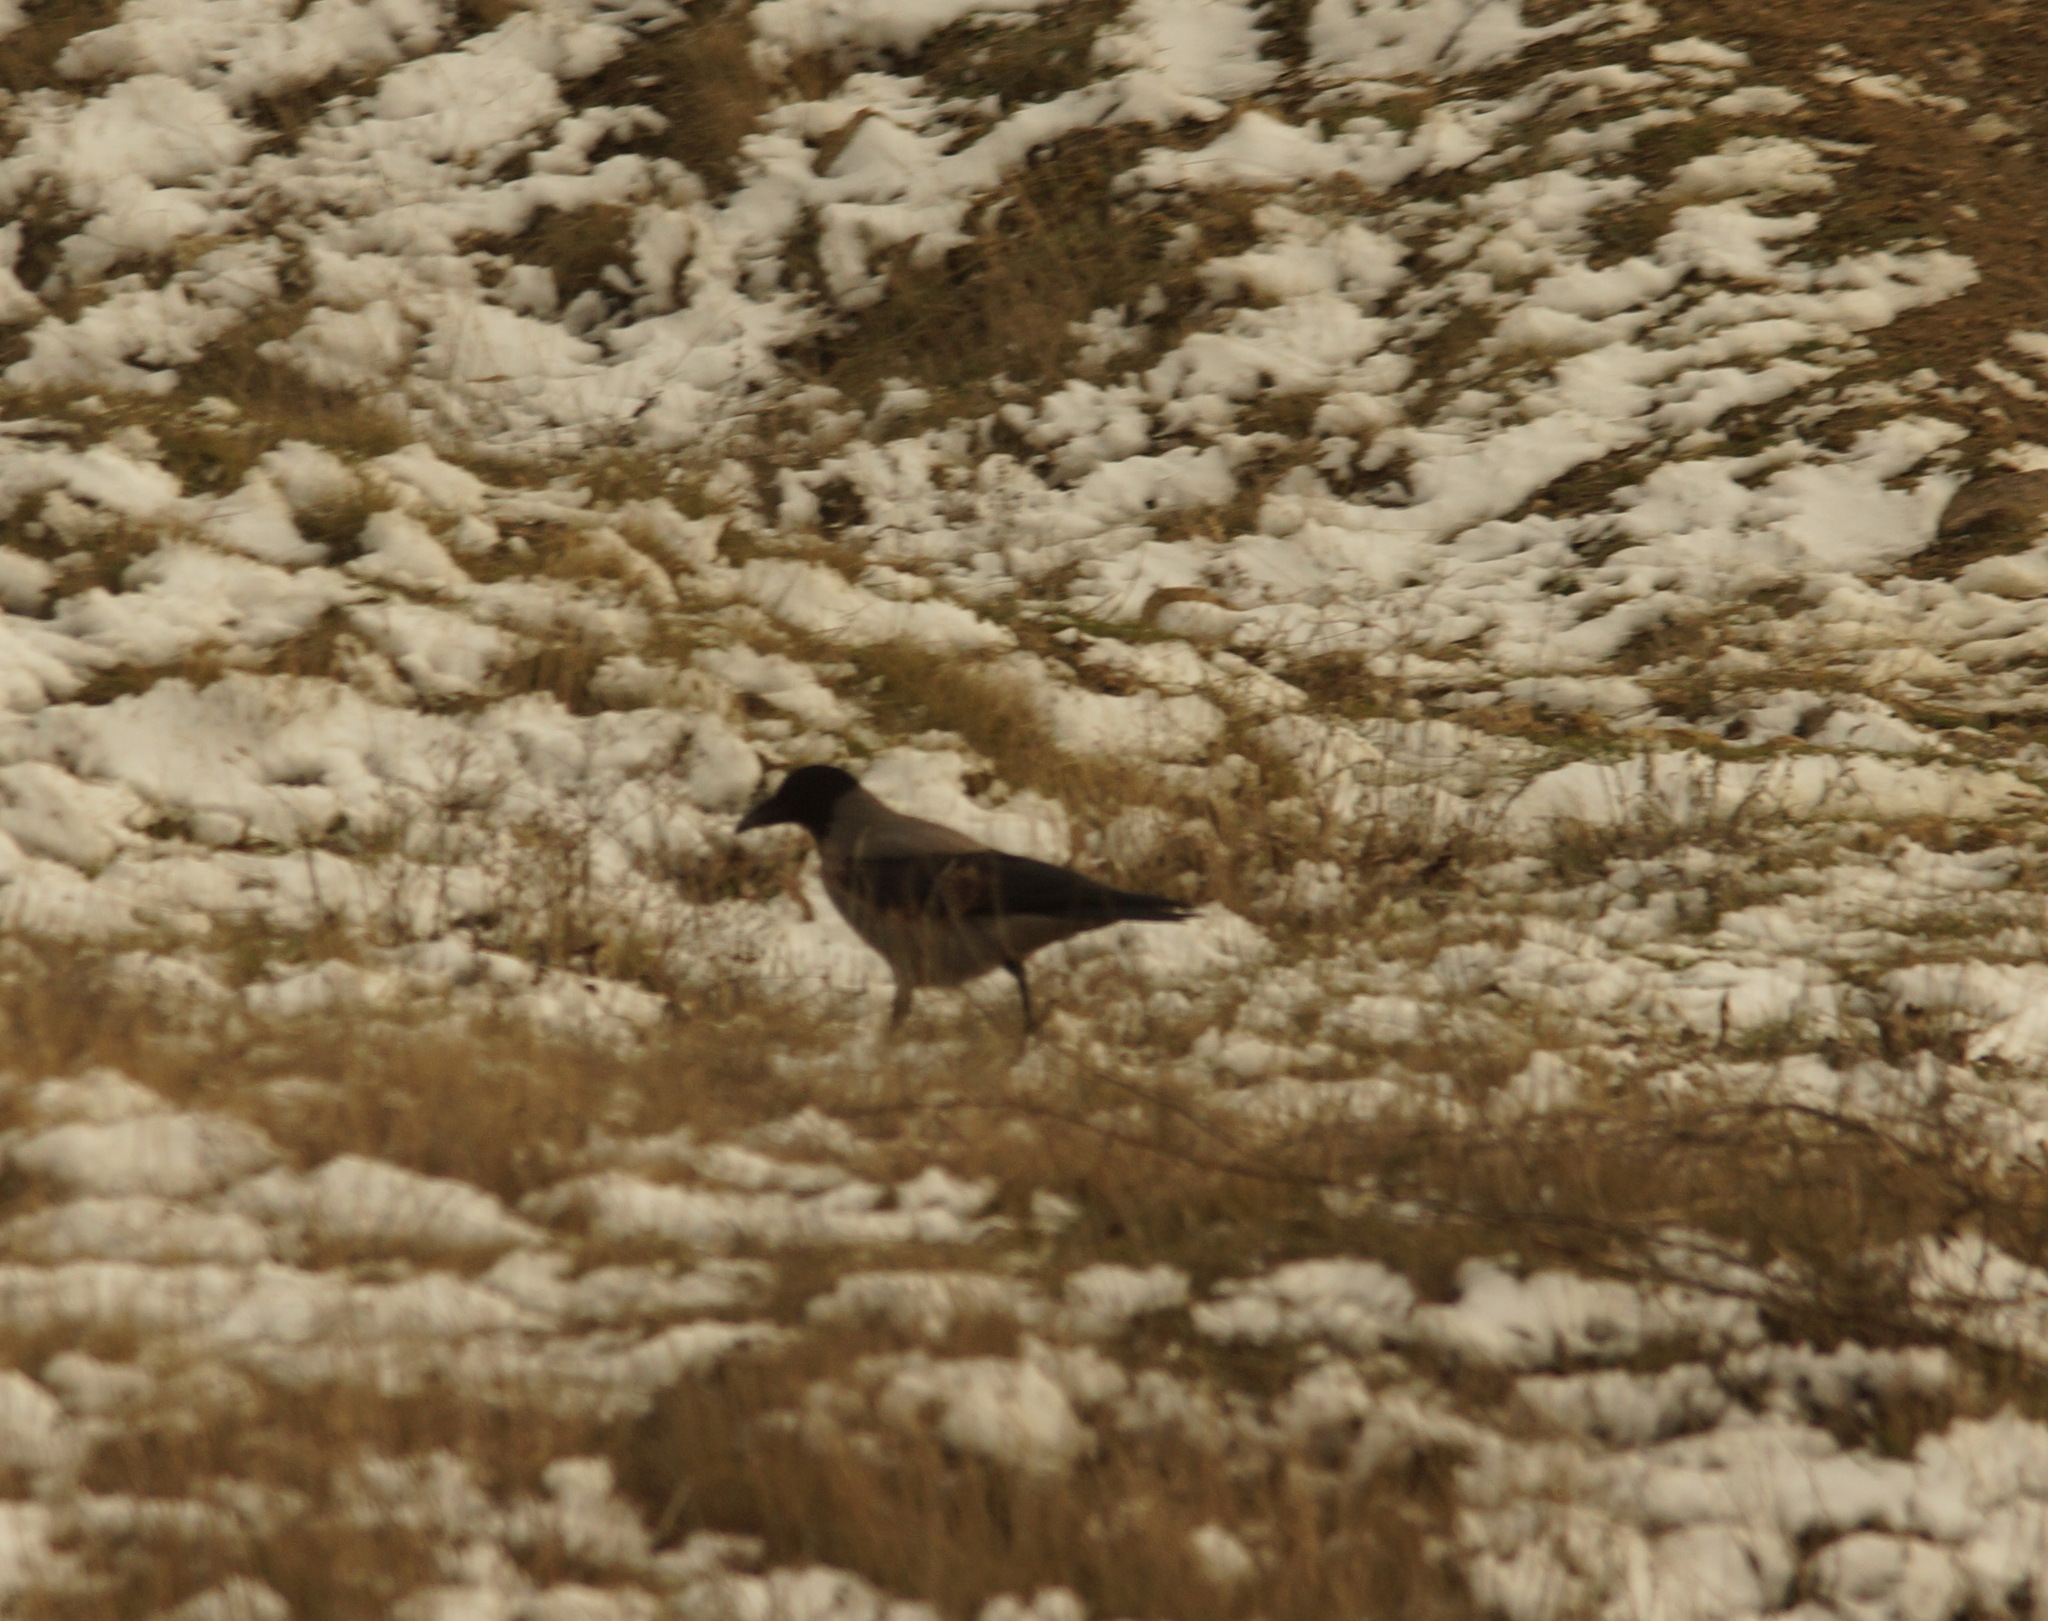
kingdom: Animalia
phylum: Chordata
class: Aves
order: Passeriformes
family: Corvidae
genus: Corvus
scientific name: Corvus cornix
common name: Hooded crow
